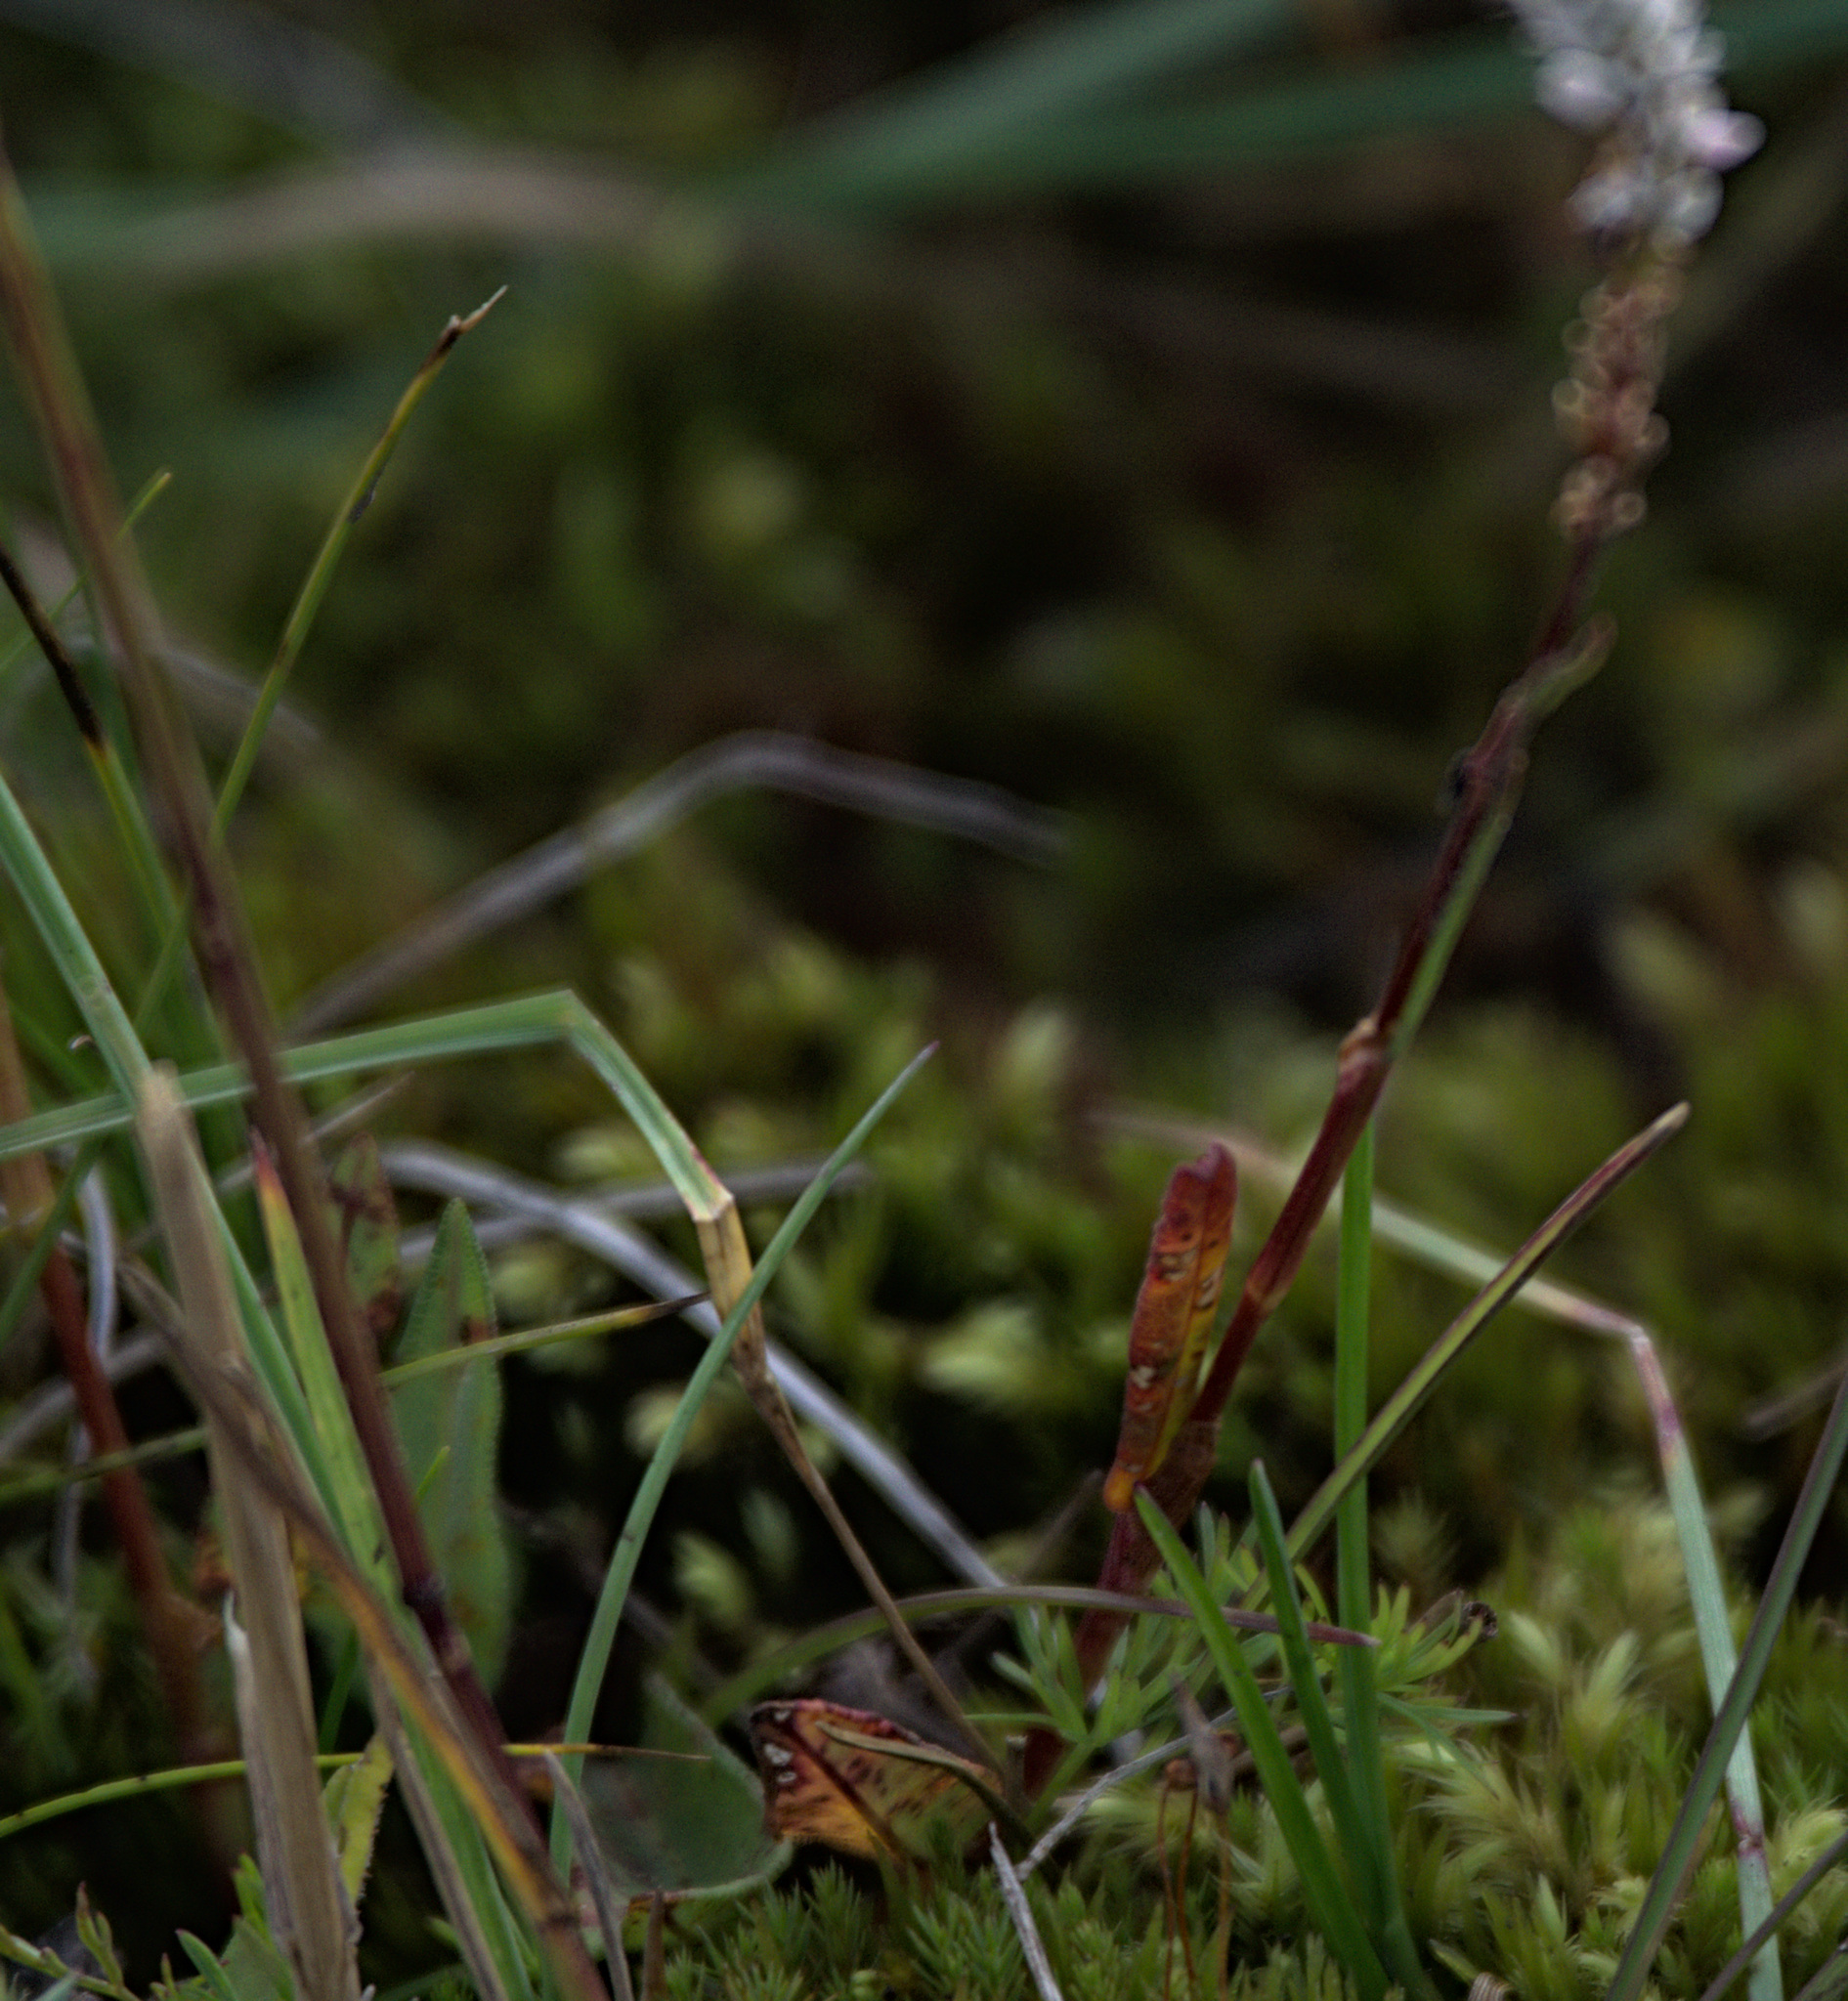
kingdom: Plantae
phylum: Tracheophyta
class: Magnoliopsida
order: Caryophyllales
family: Polygonaceae
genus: Bistorta
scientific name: Bistorta vivipara
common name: Alpine bistort
